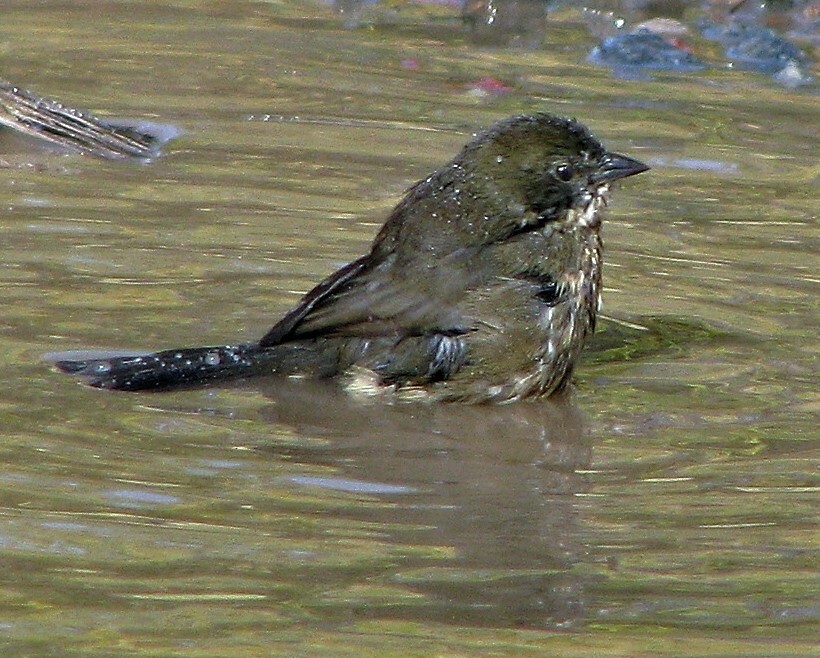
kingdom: Animalia
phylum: Chordata
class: Aves
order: Passeriformes
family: Thraupidae
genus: Poospiza
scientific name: Poospiza nigrorufa
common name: Black-and-rufous warbling finch
